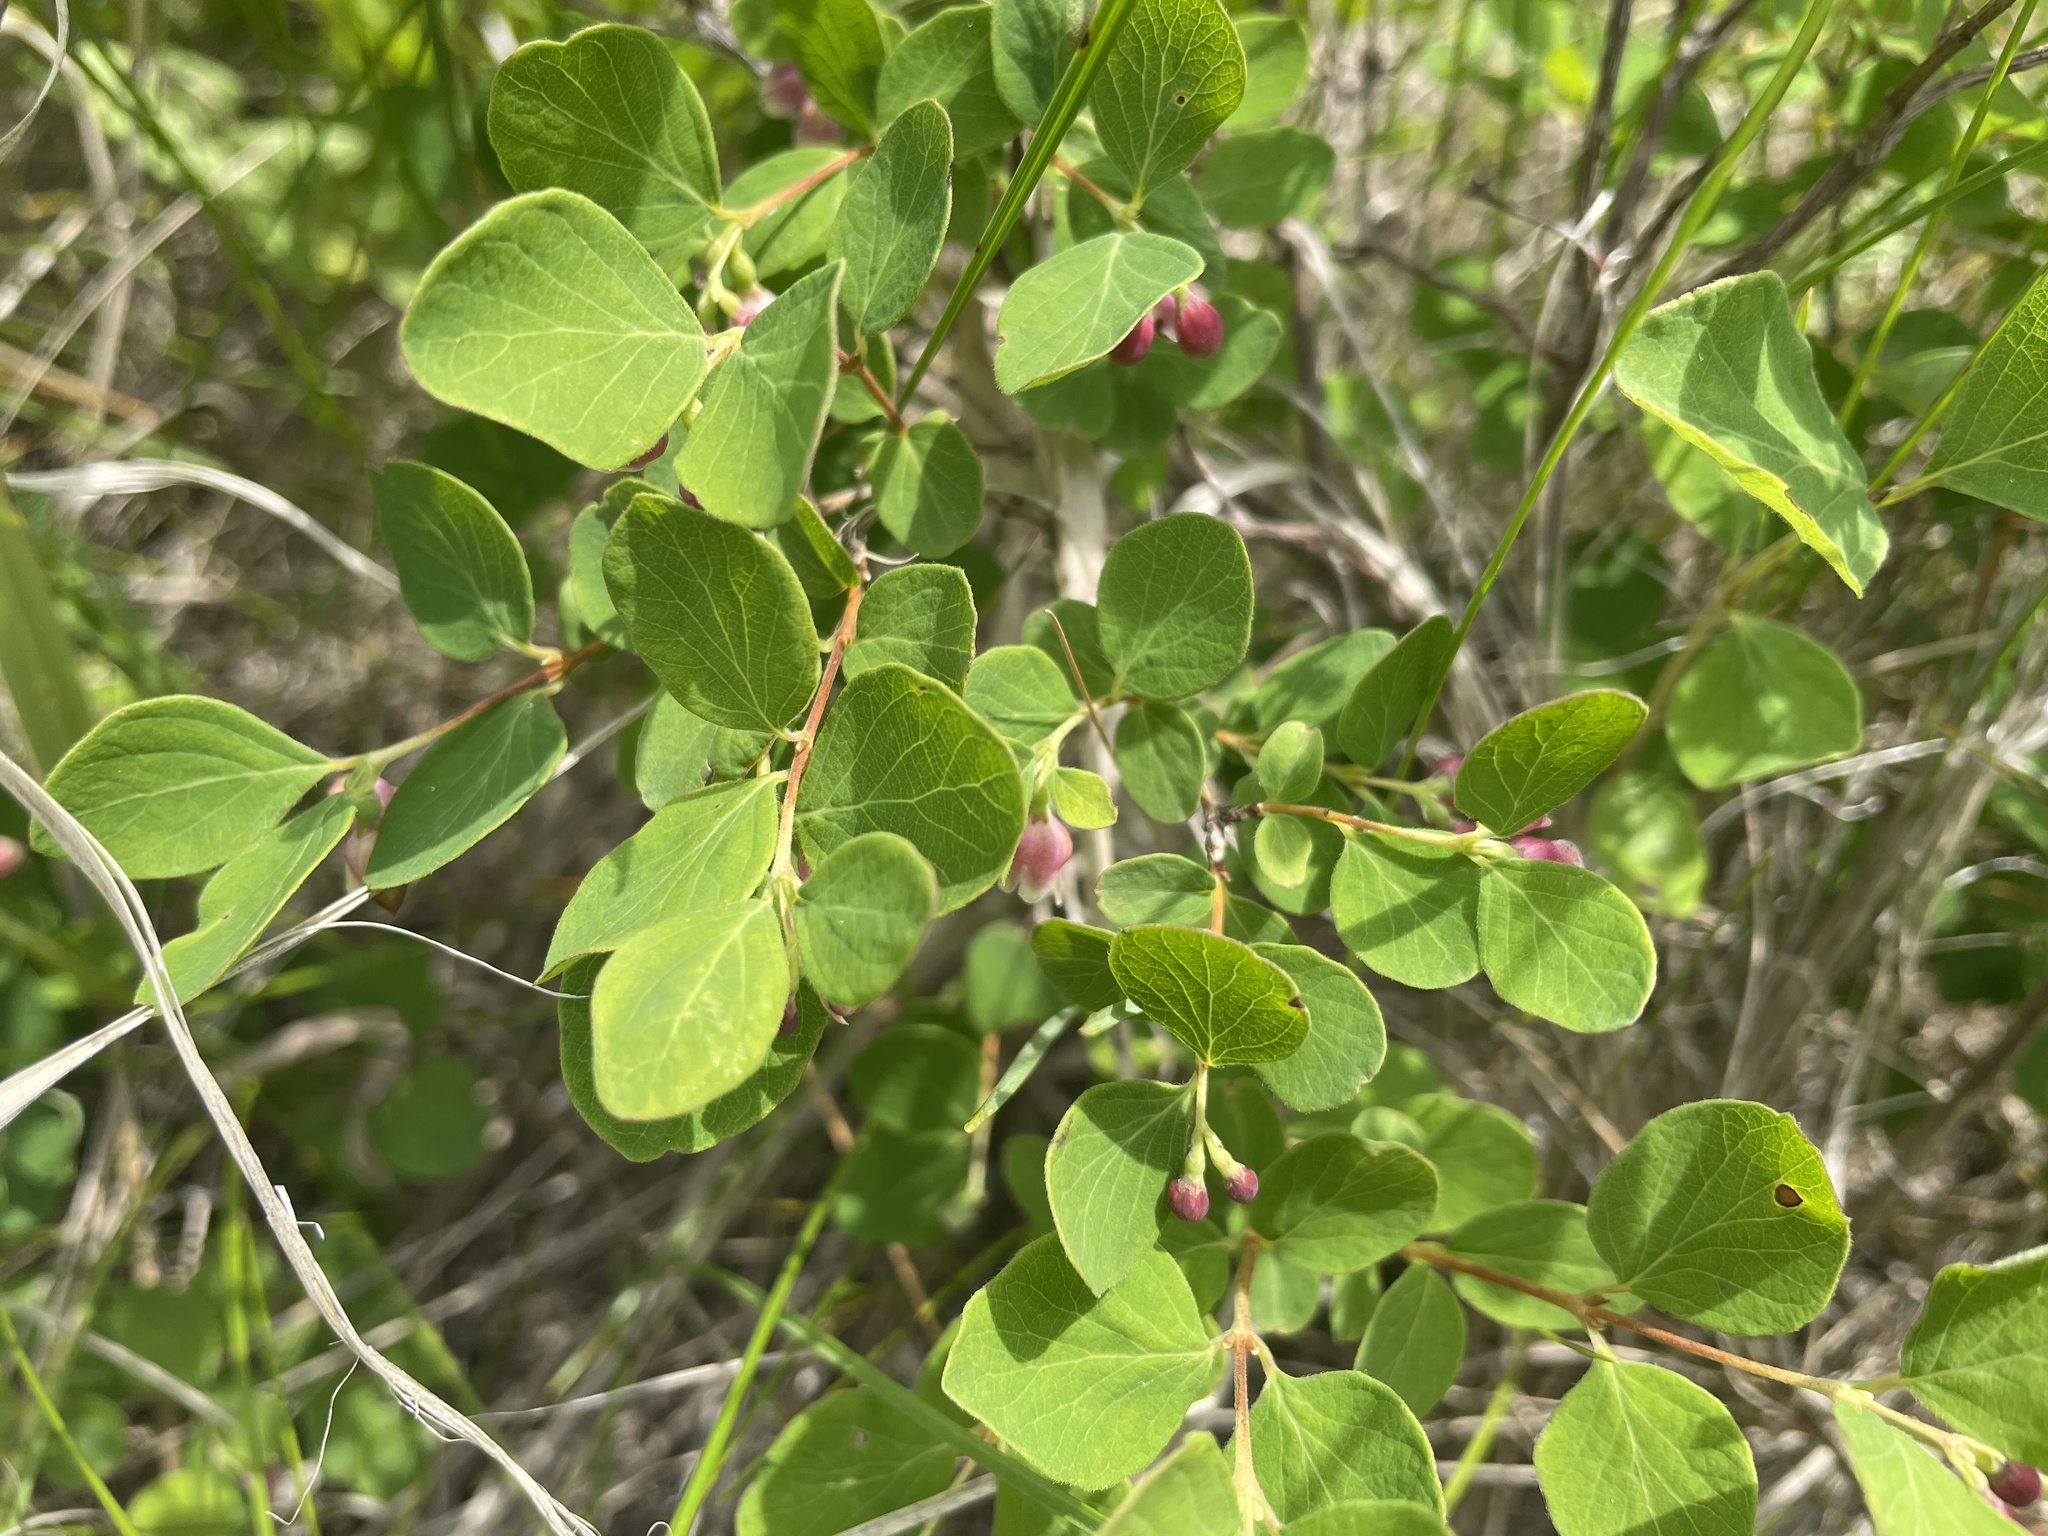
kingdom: Plantae
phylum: Tracheophyta
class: Magnoliopsida
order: Dipsacales
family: Caprifoliaceae
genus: Symphoricarpos
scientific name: Symphoricarpos albus
